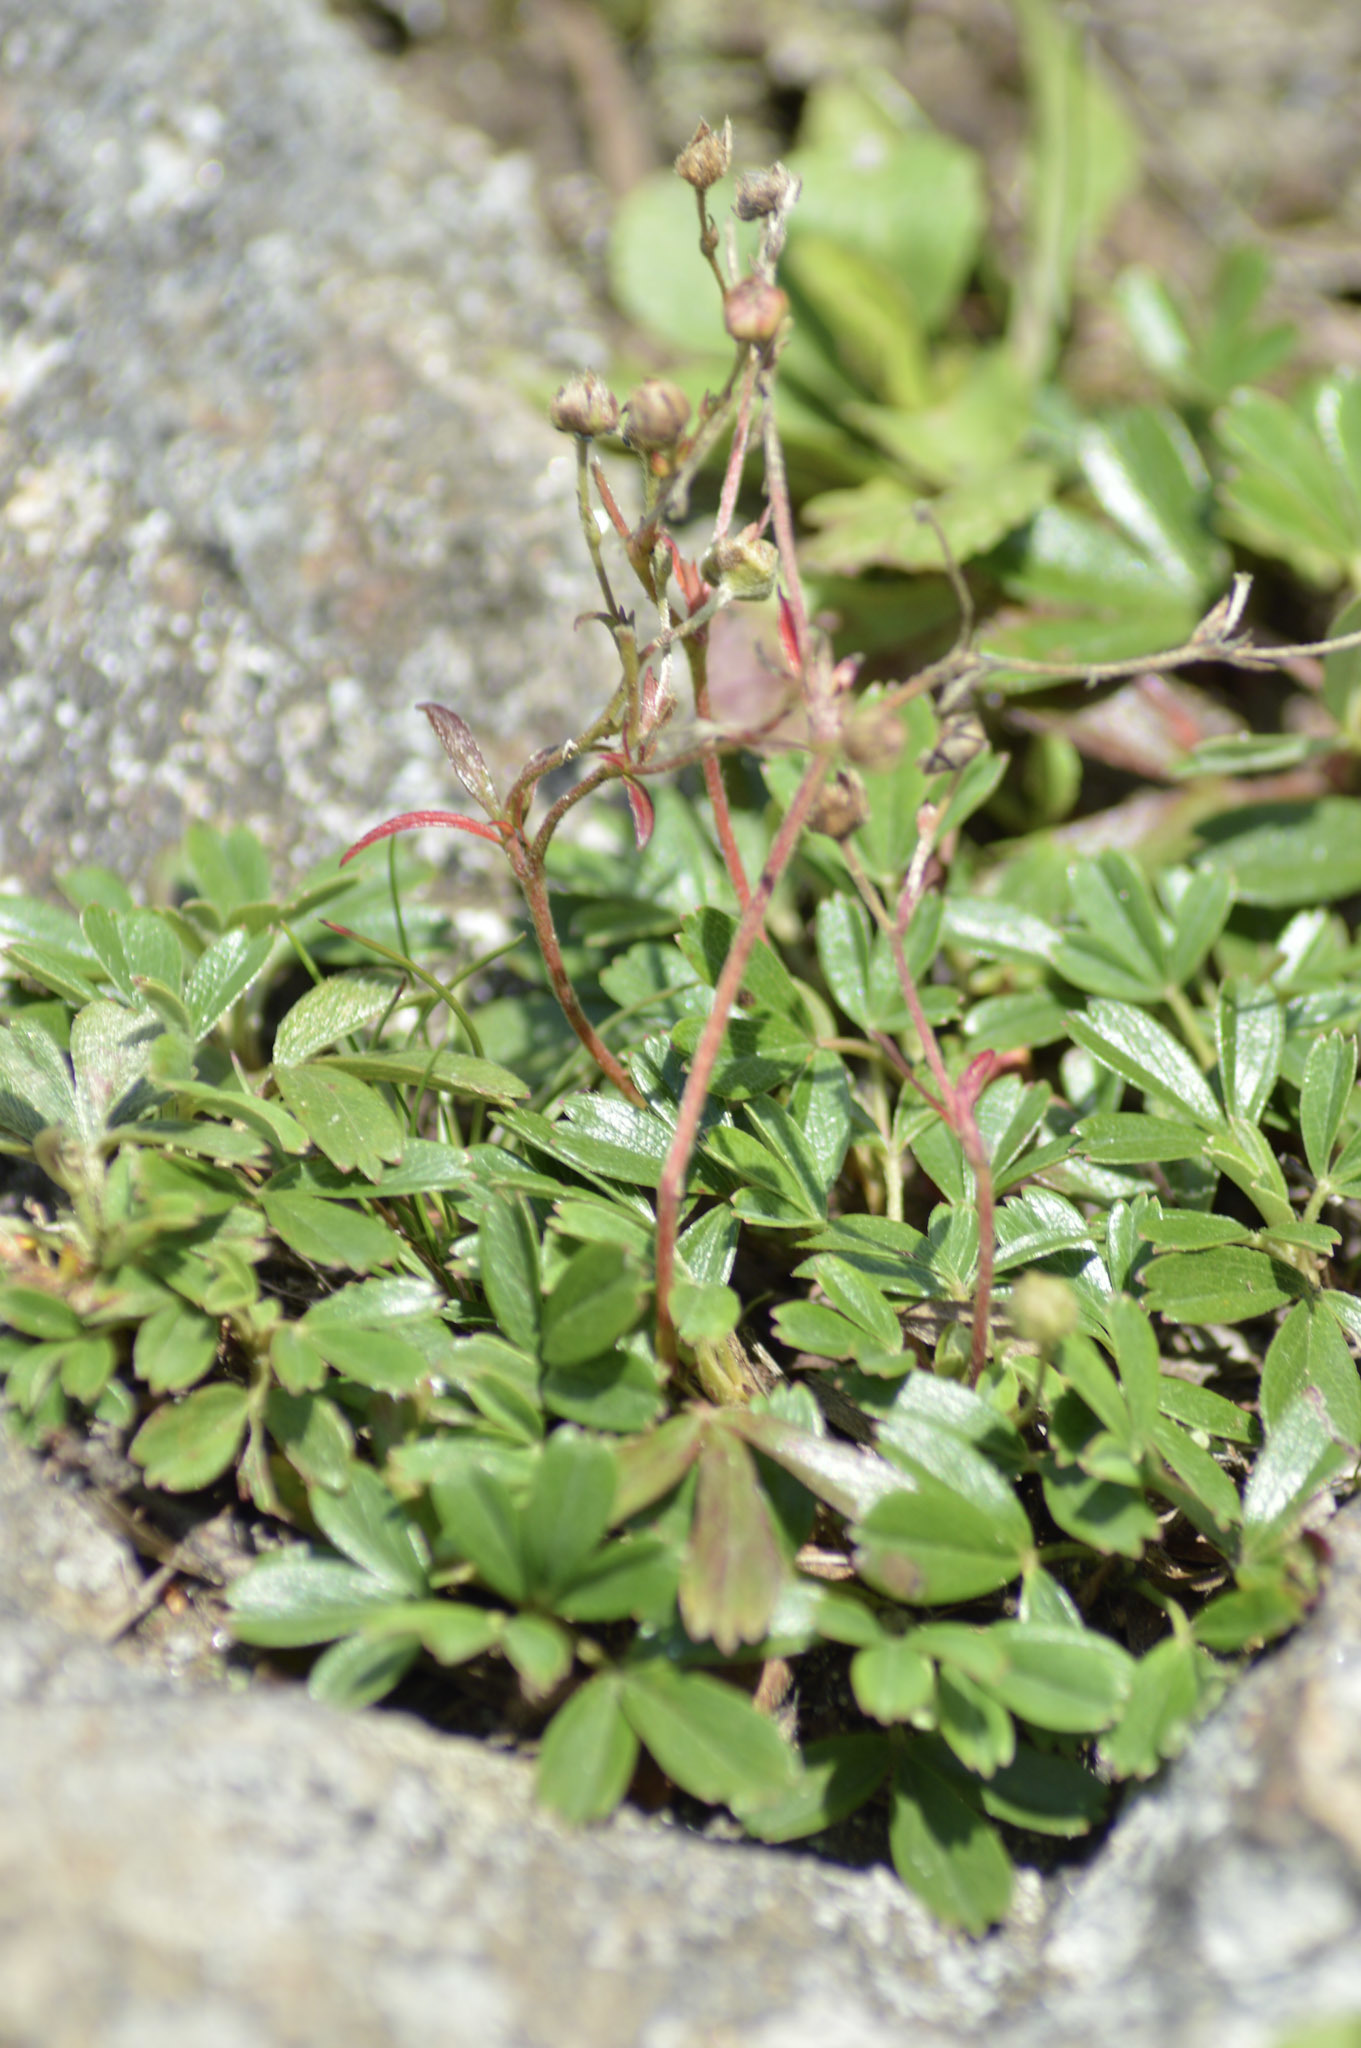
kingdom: Plantae
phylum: Tracheophyta
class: Magnoliopsida
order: Rosales
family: Rosaceae
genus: Sibbaldia
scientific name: Sibbaldia tridentata
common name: Three-toothed cinquefoil
